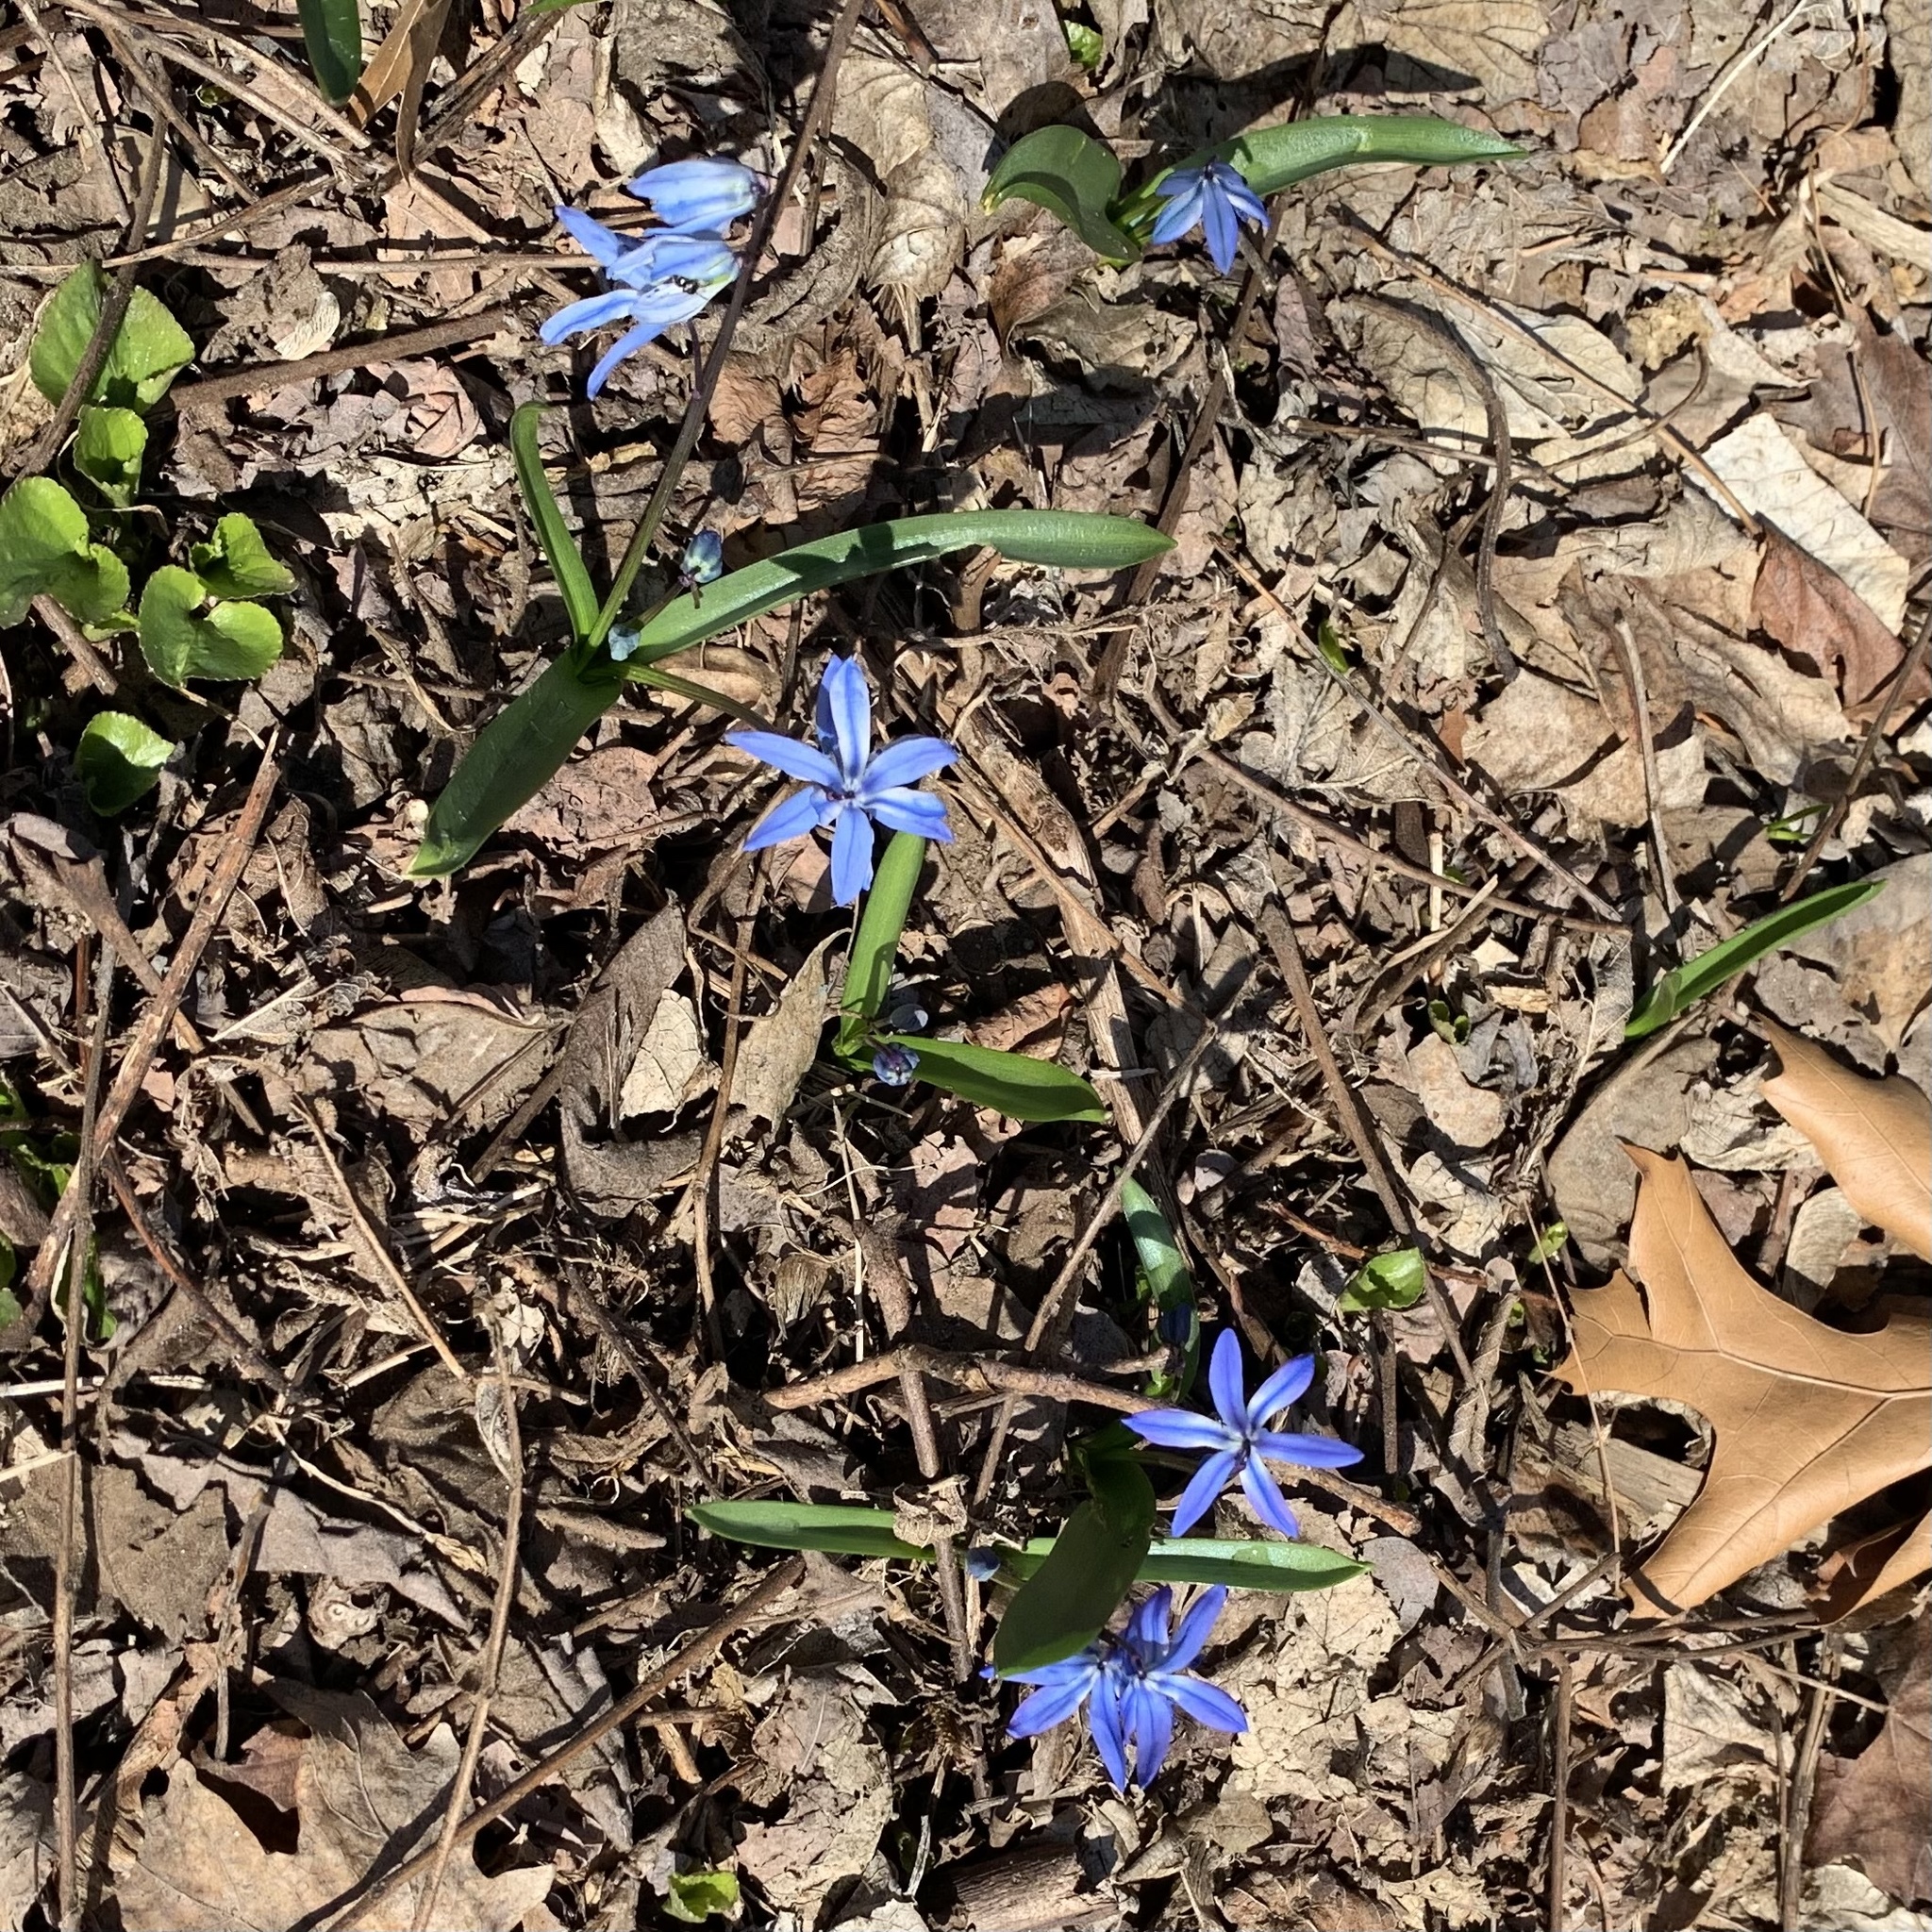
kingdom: Plantae
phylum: Tracheophyta
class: Liliopsida
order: Asparagales
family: Asparagaceae
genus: Scilla
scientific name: Scilla siberica
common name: Siberian squill
